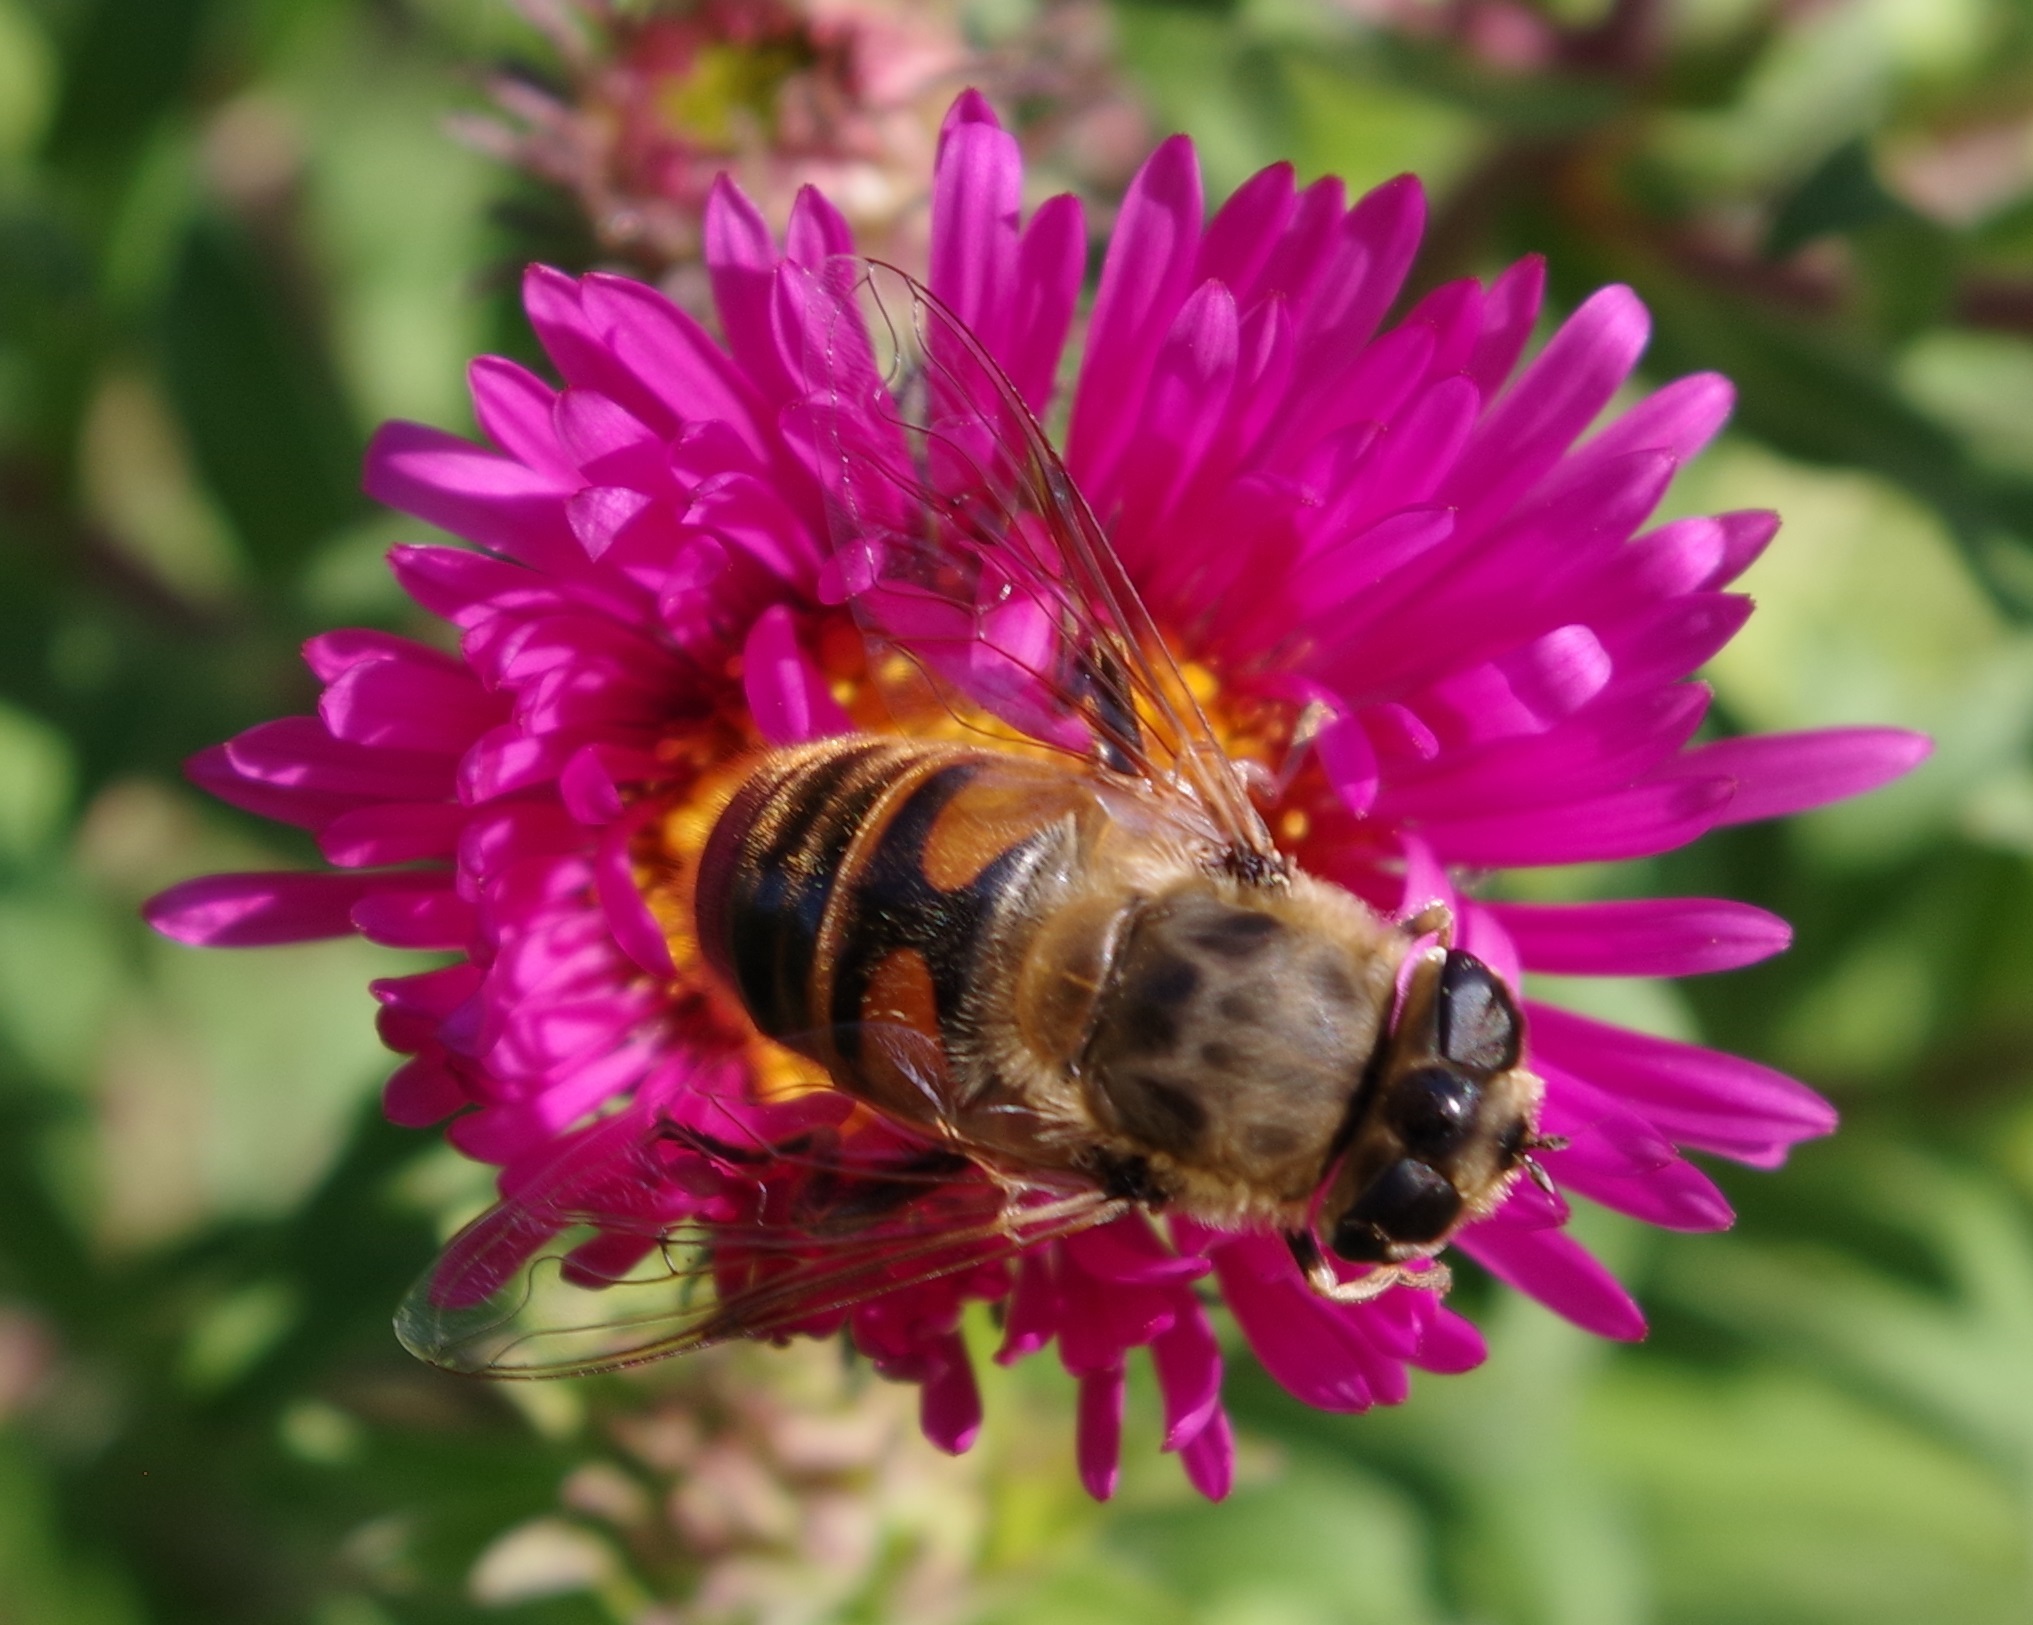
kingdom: Animalia
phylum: Arthropoda
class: Insecta
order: Diptera
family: Syrphidae
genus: Eristalis
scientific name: Eristalis tenax
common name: Drone fly
